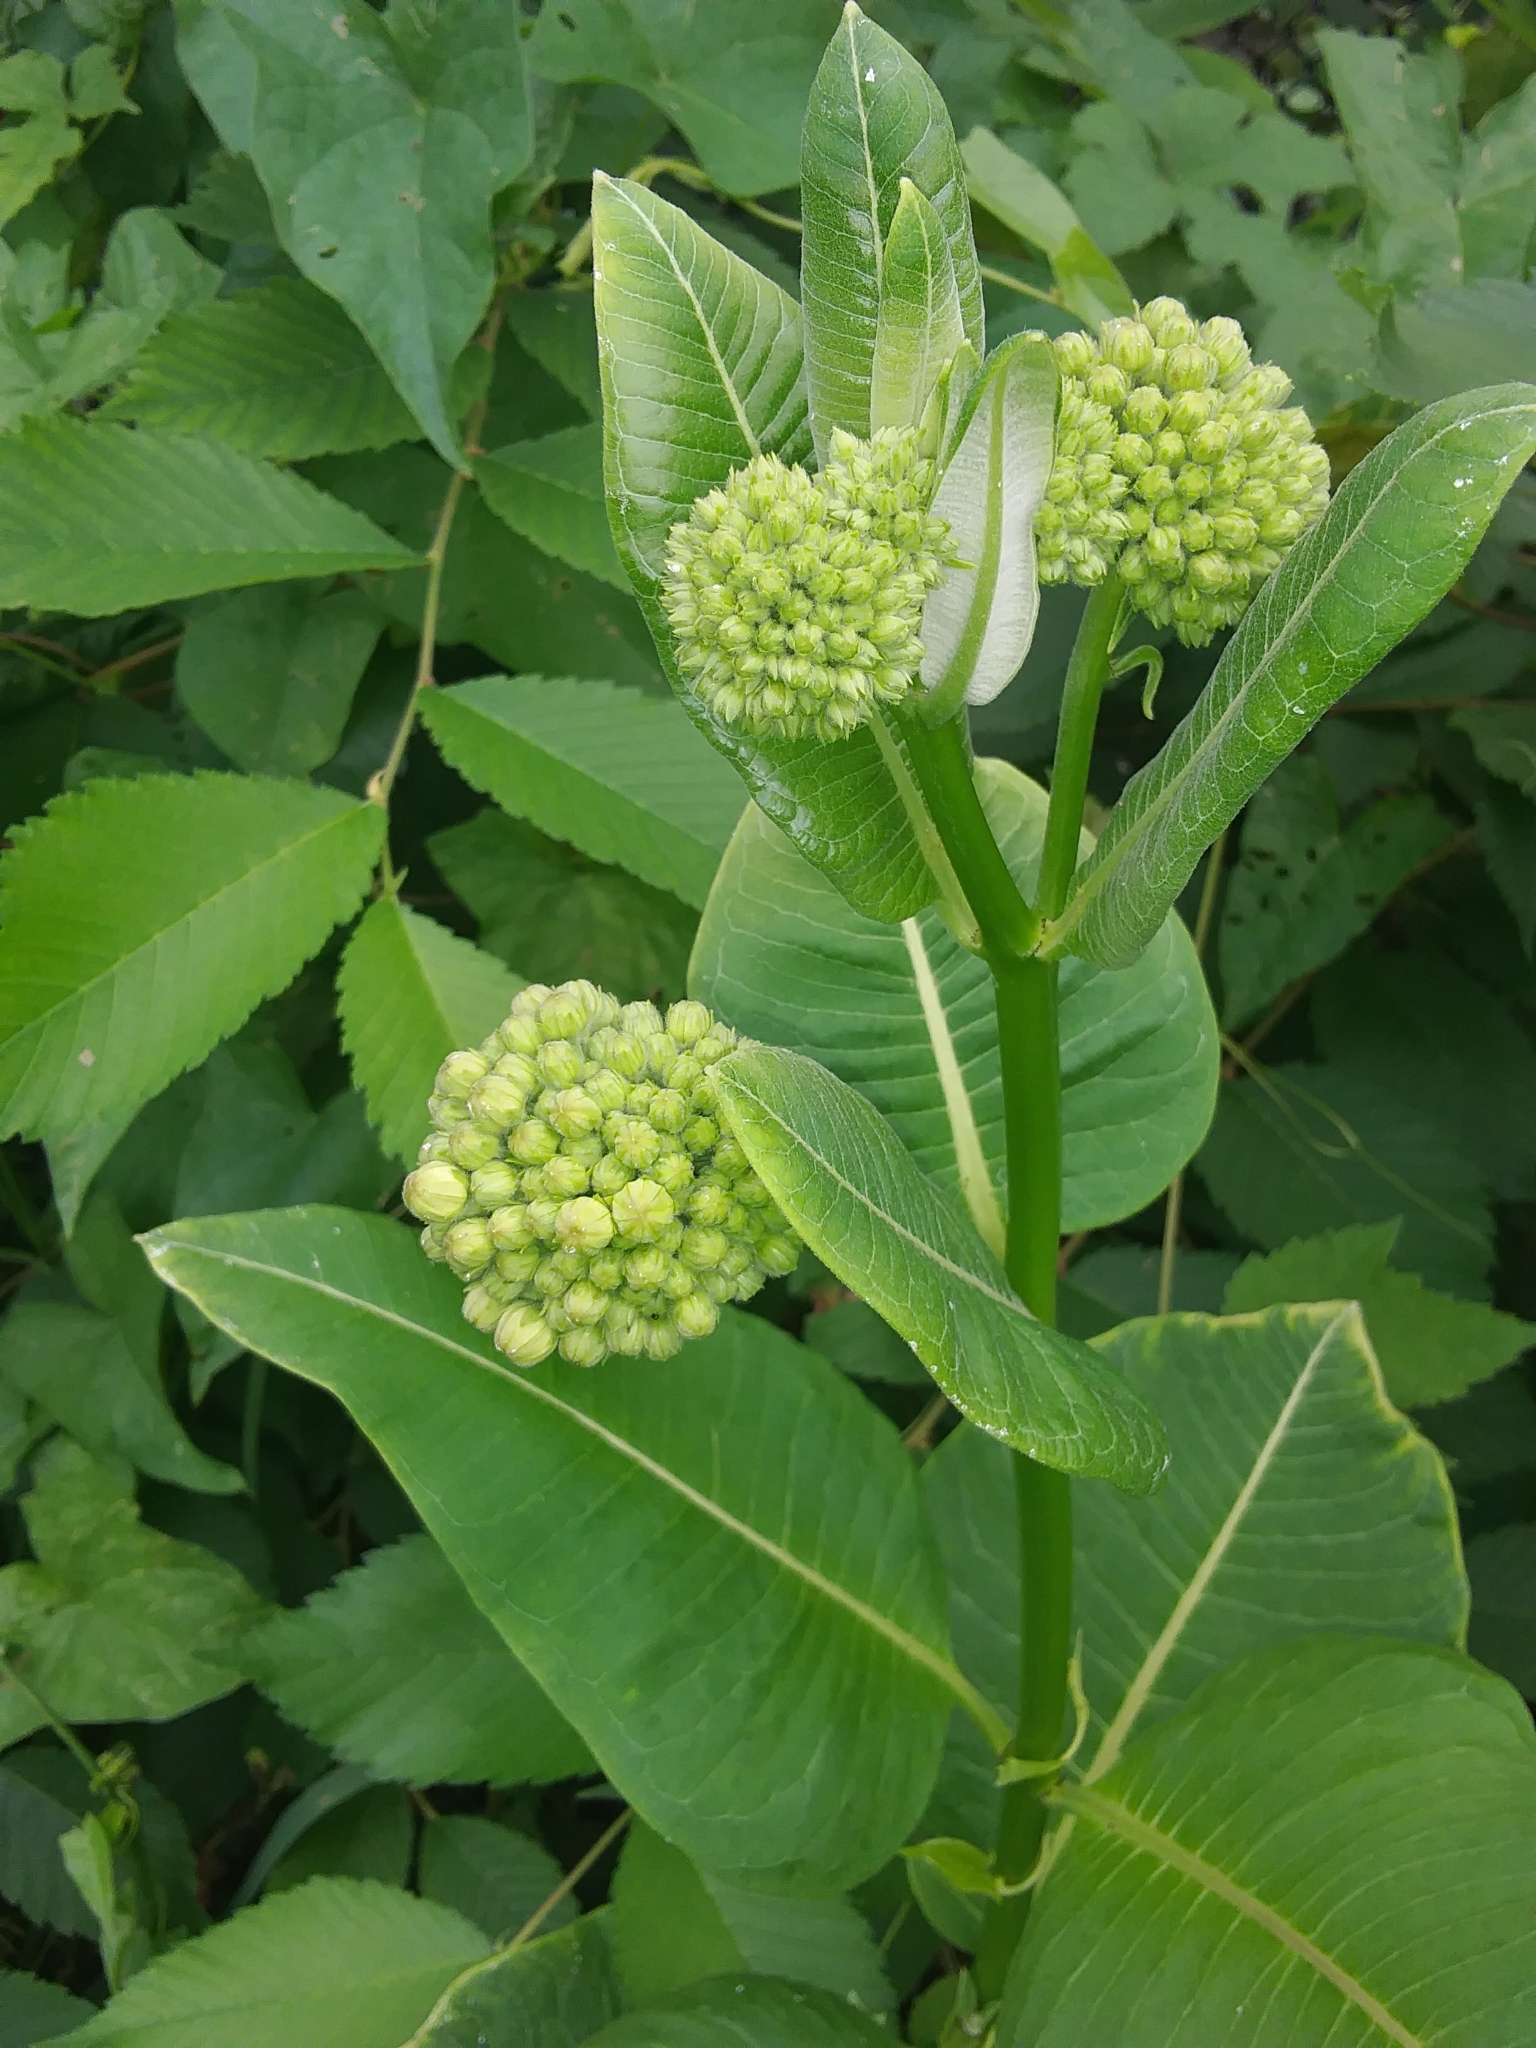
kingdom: Plantae
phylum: Tracheophyta
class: Magnoliopsida
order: Gentianales
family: Apocynaceae
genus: Asclepias
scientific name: Asclepias syriaca
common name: Common milkweed
